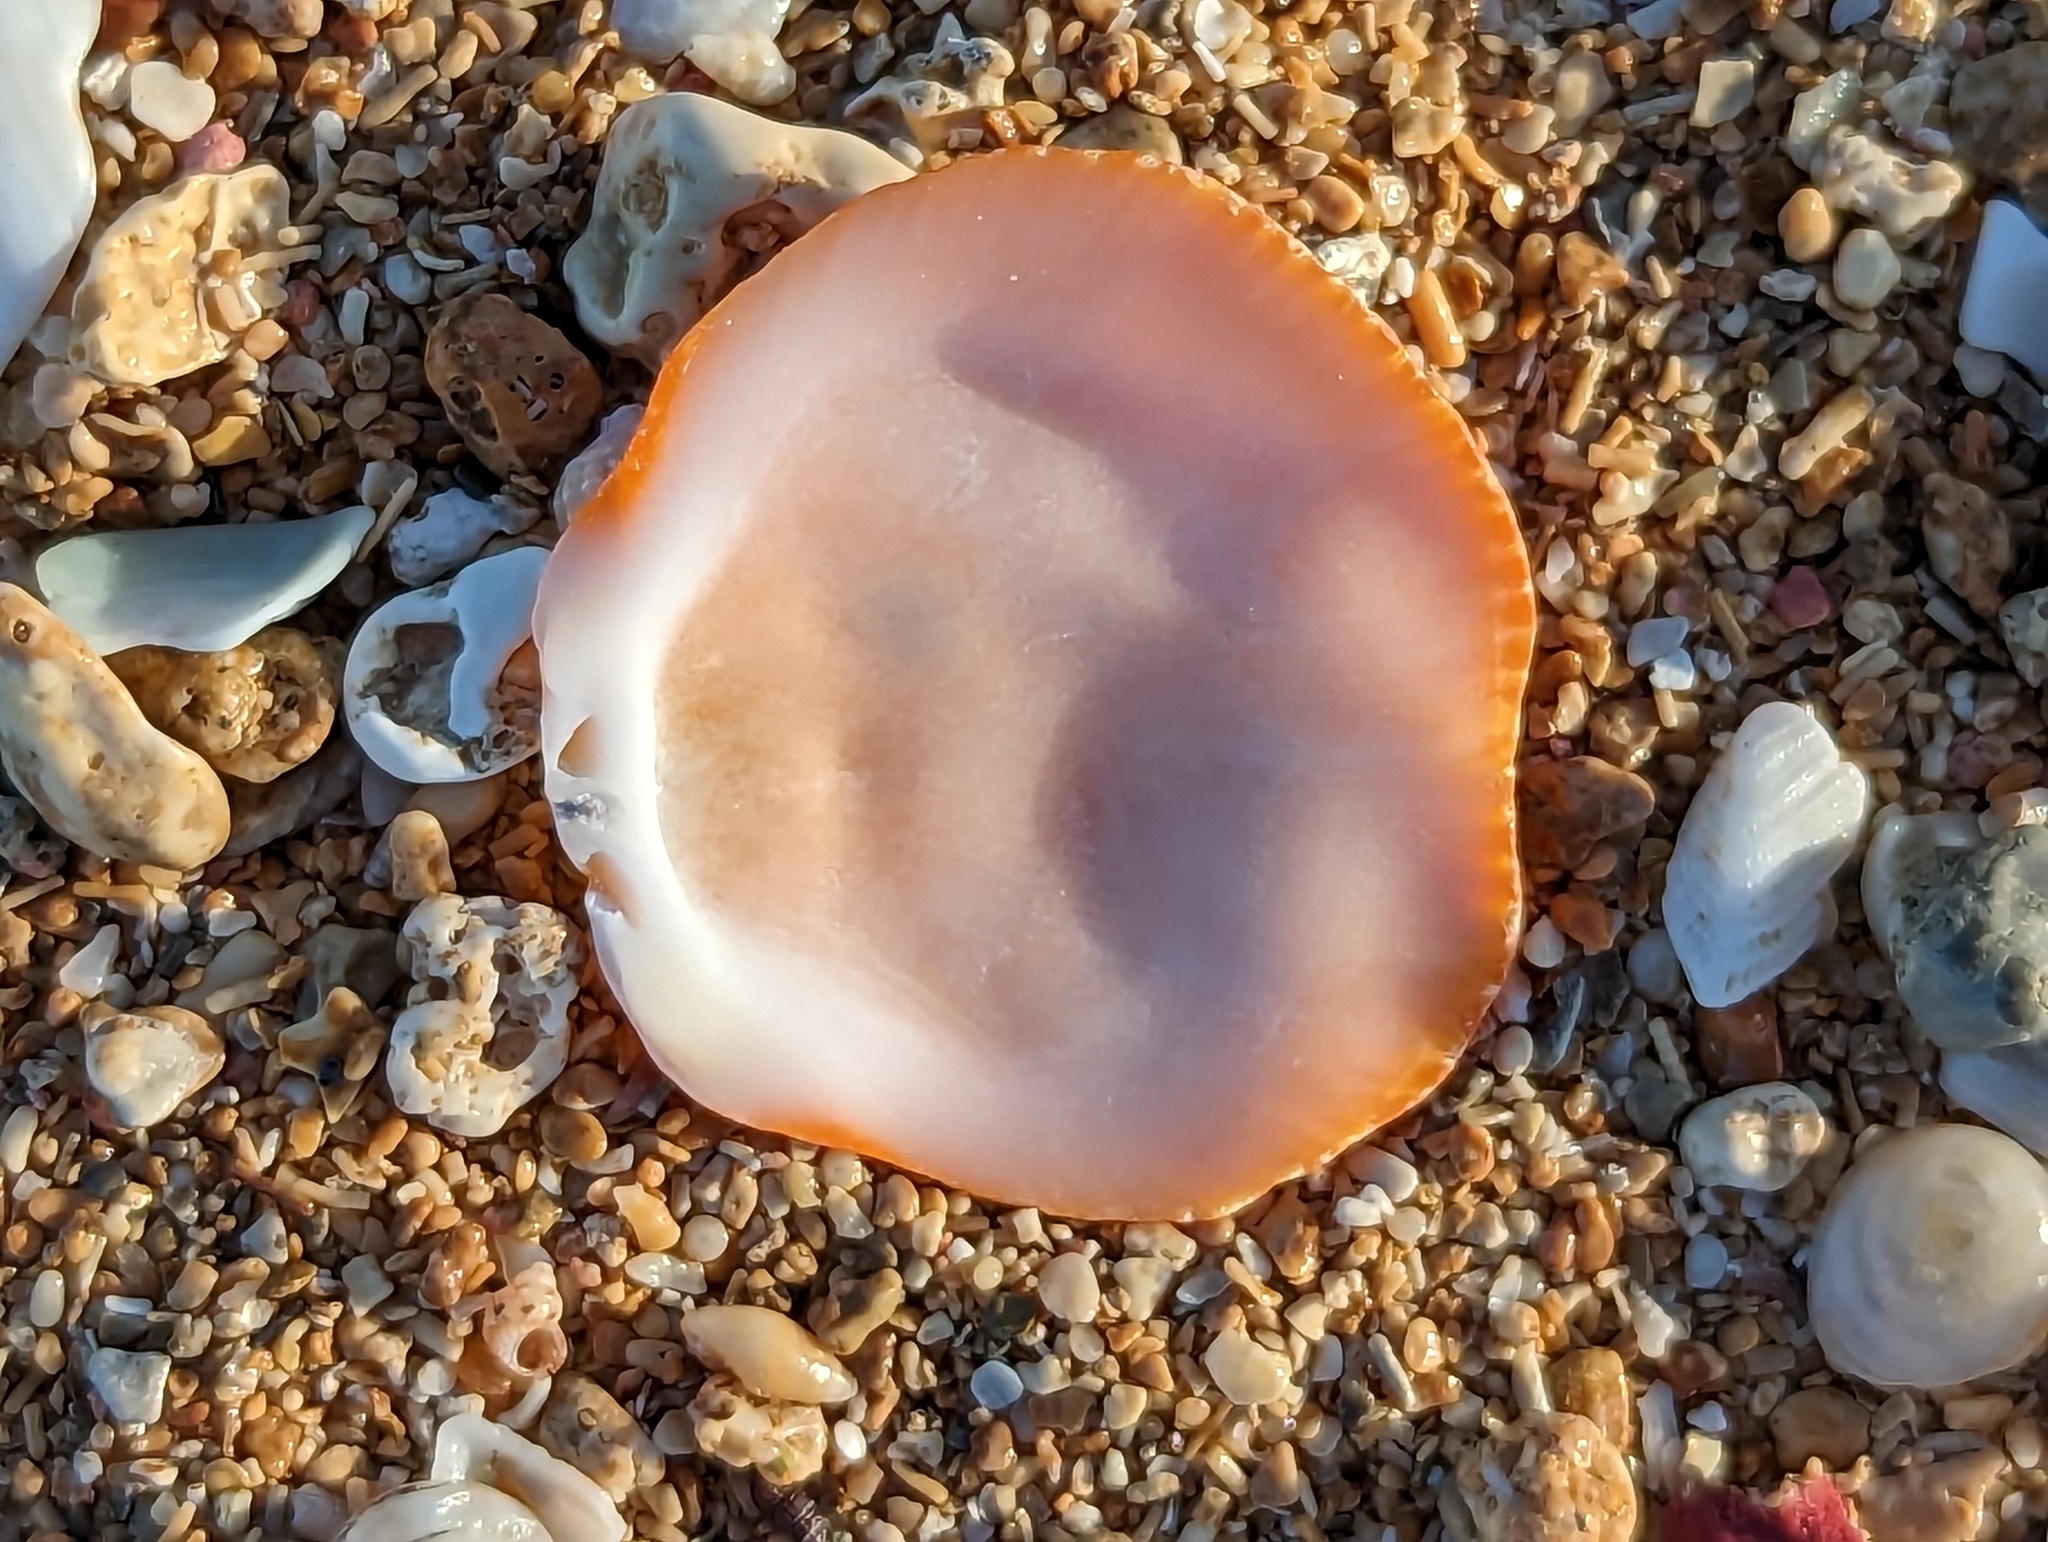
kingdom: Animalia
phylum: Mollusca
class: Bivalvia
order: Pectinida
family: Spondylidae
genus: Spondylus
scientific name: Spondylus tenuis
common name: Digitate thorny oyster
